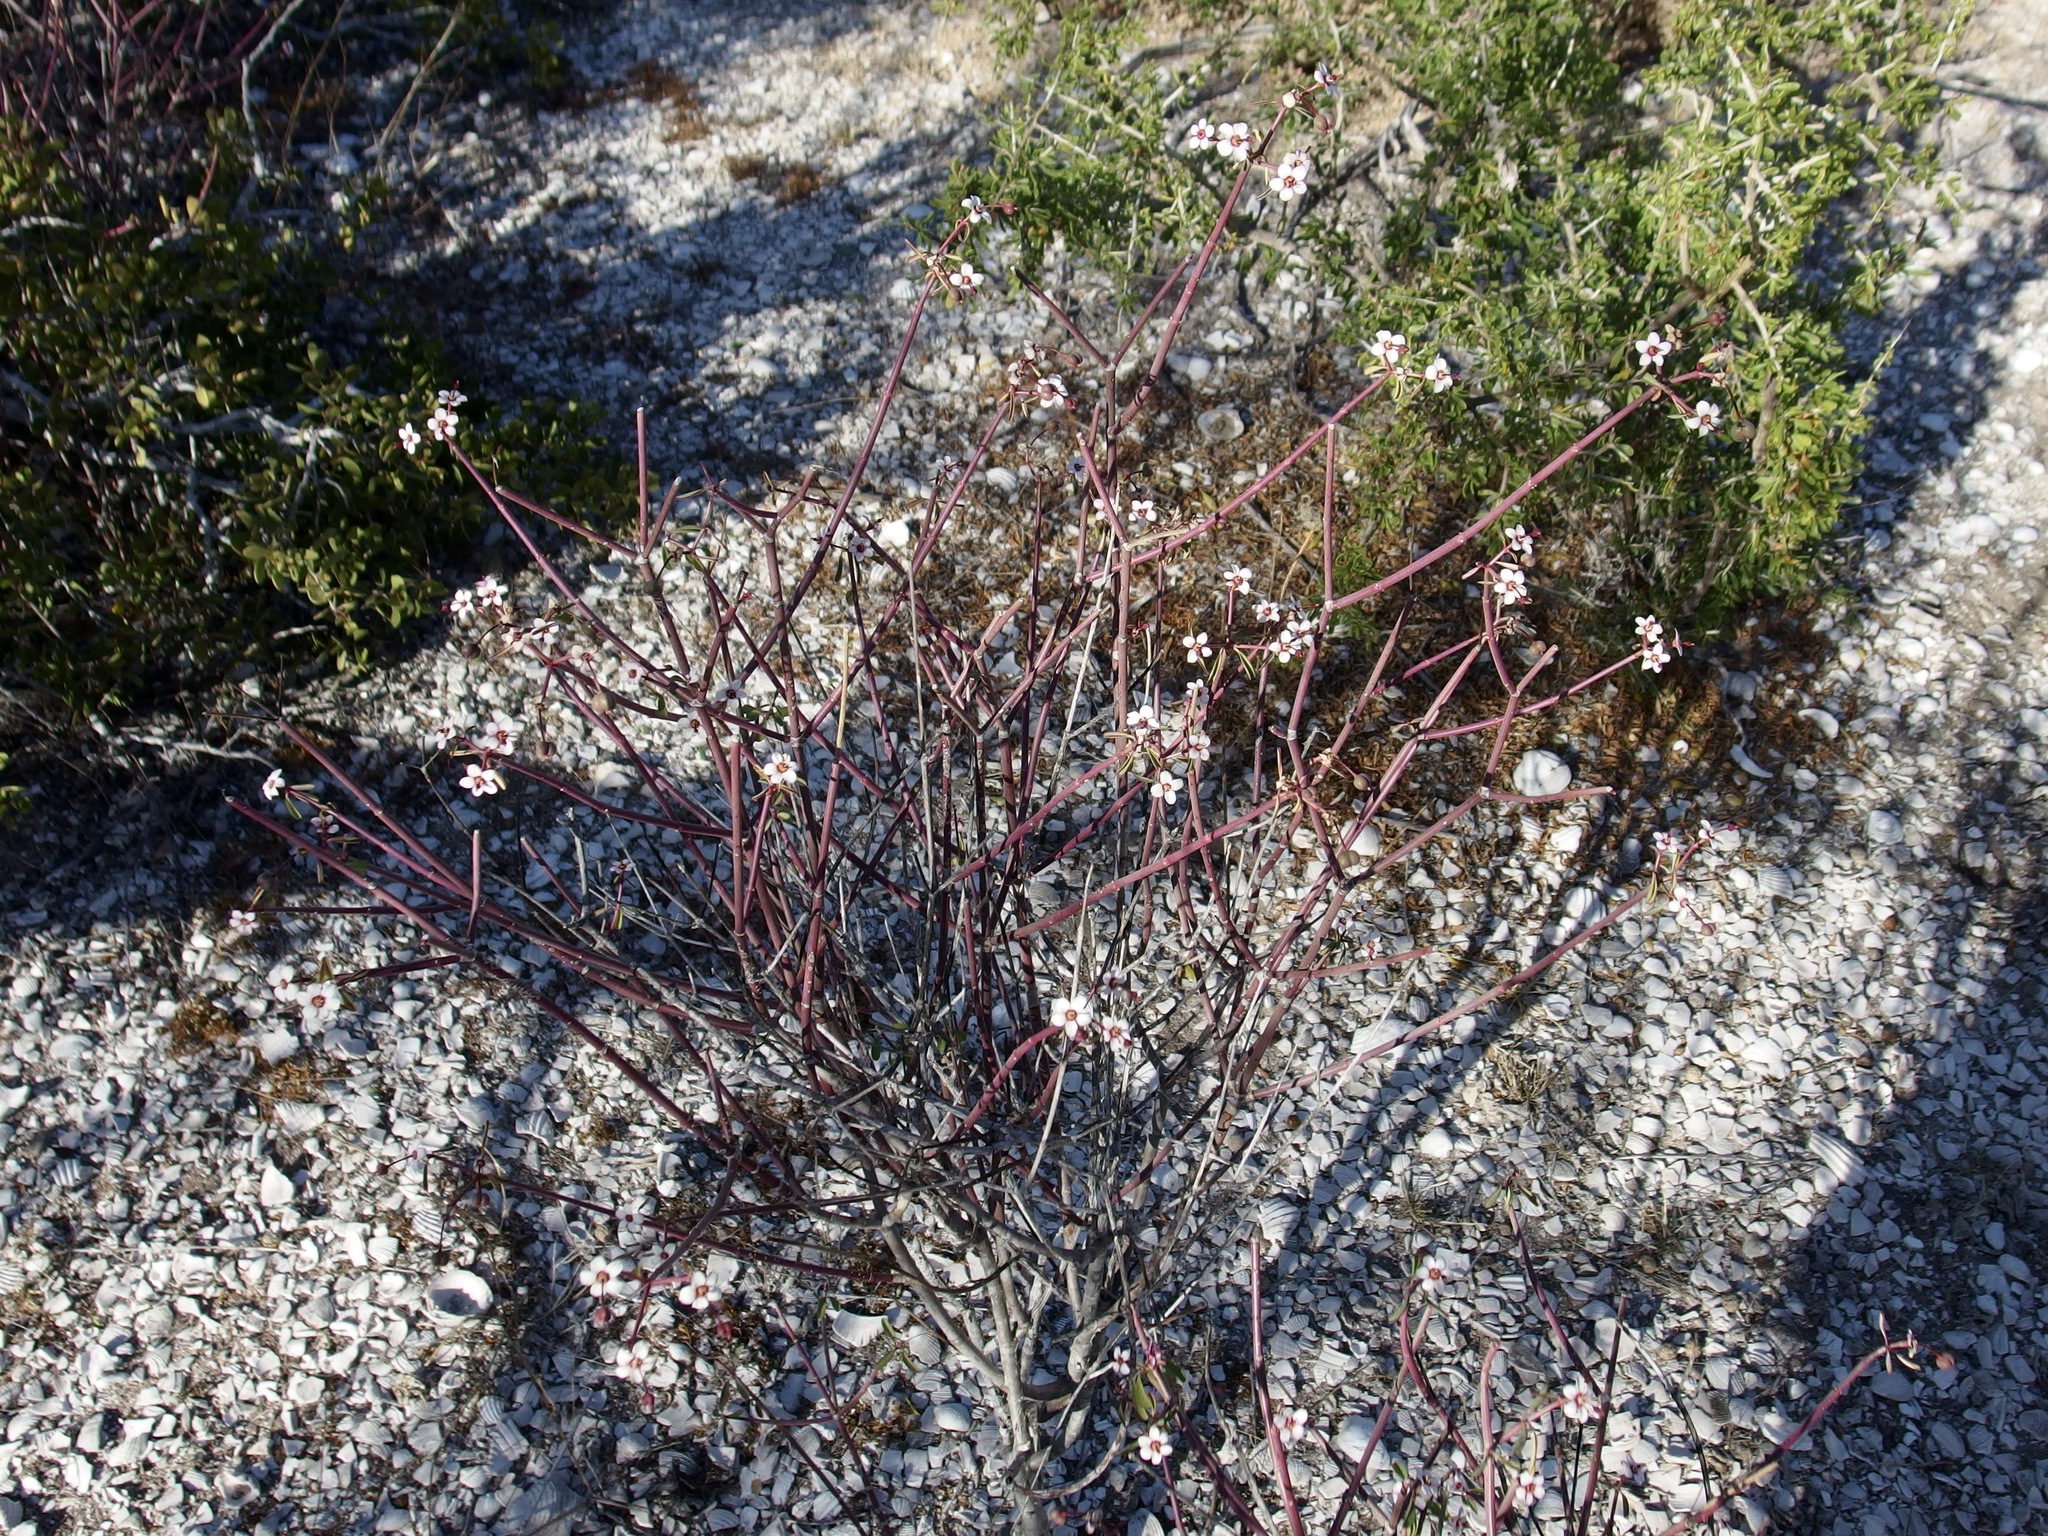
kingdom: Plantae
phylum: Tracheophyta
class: Magnoliopsida
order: Malpighiales
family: Euphorbiaceae
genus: Euphorbia
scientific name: Euphorbia xanti
